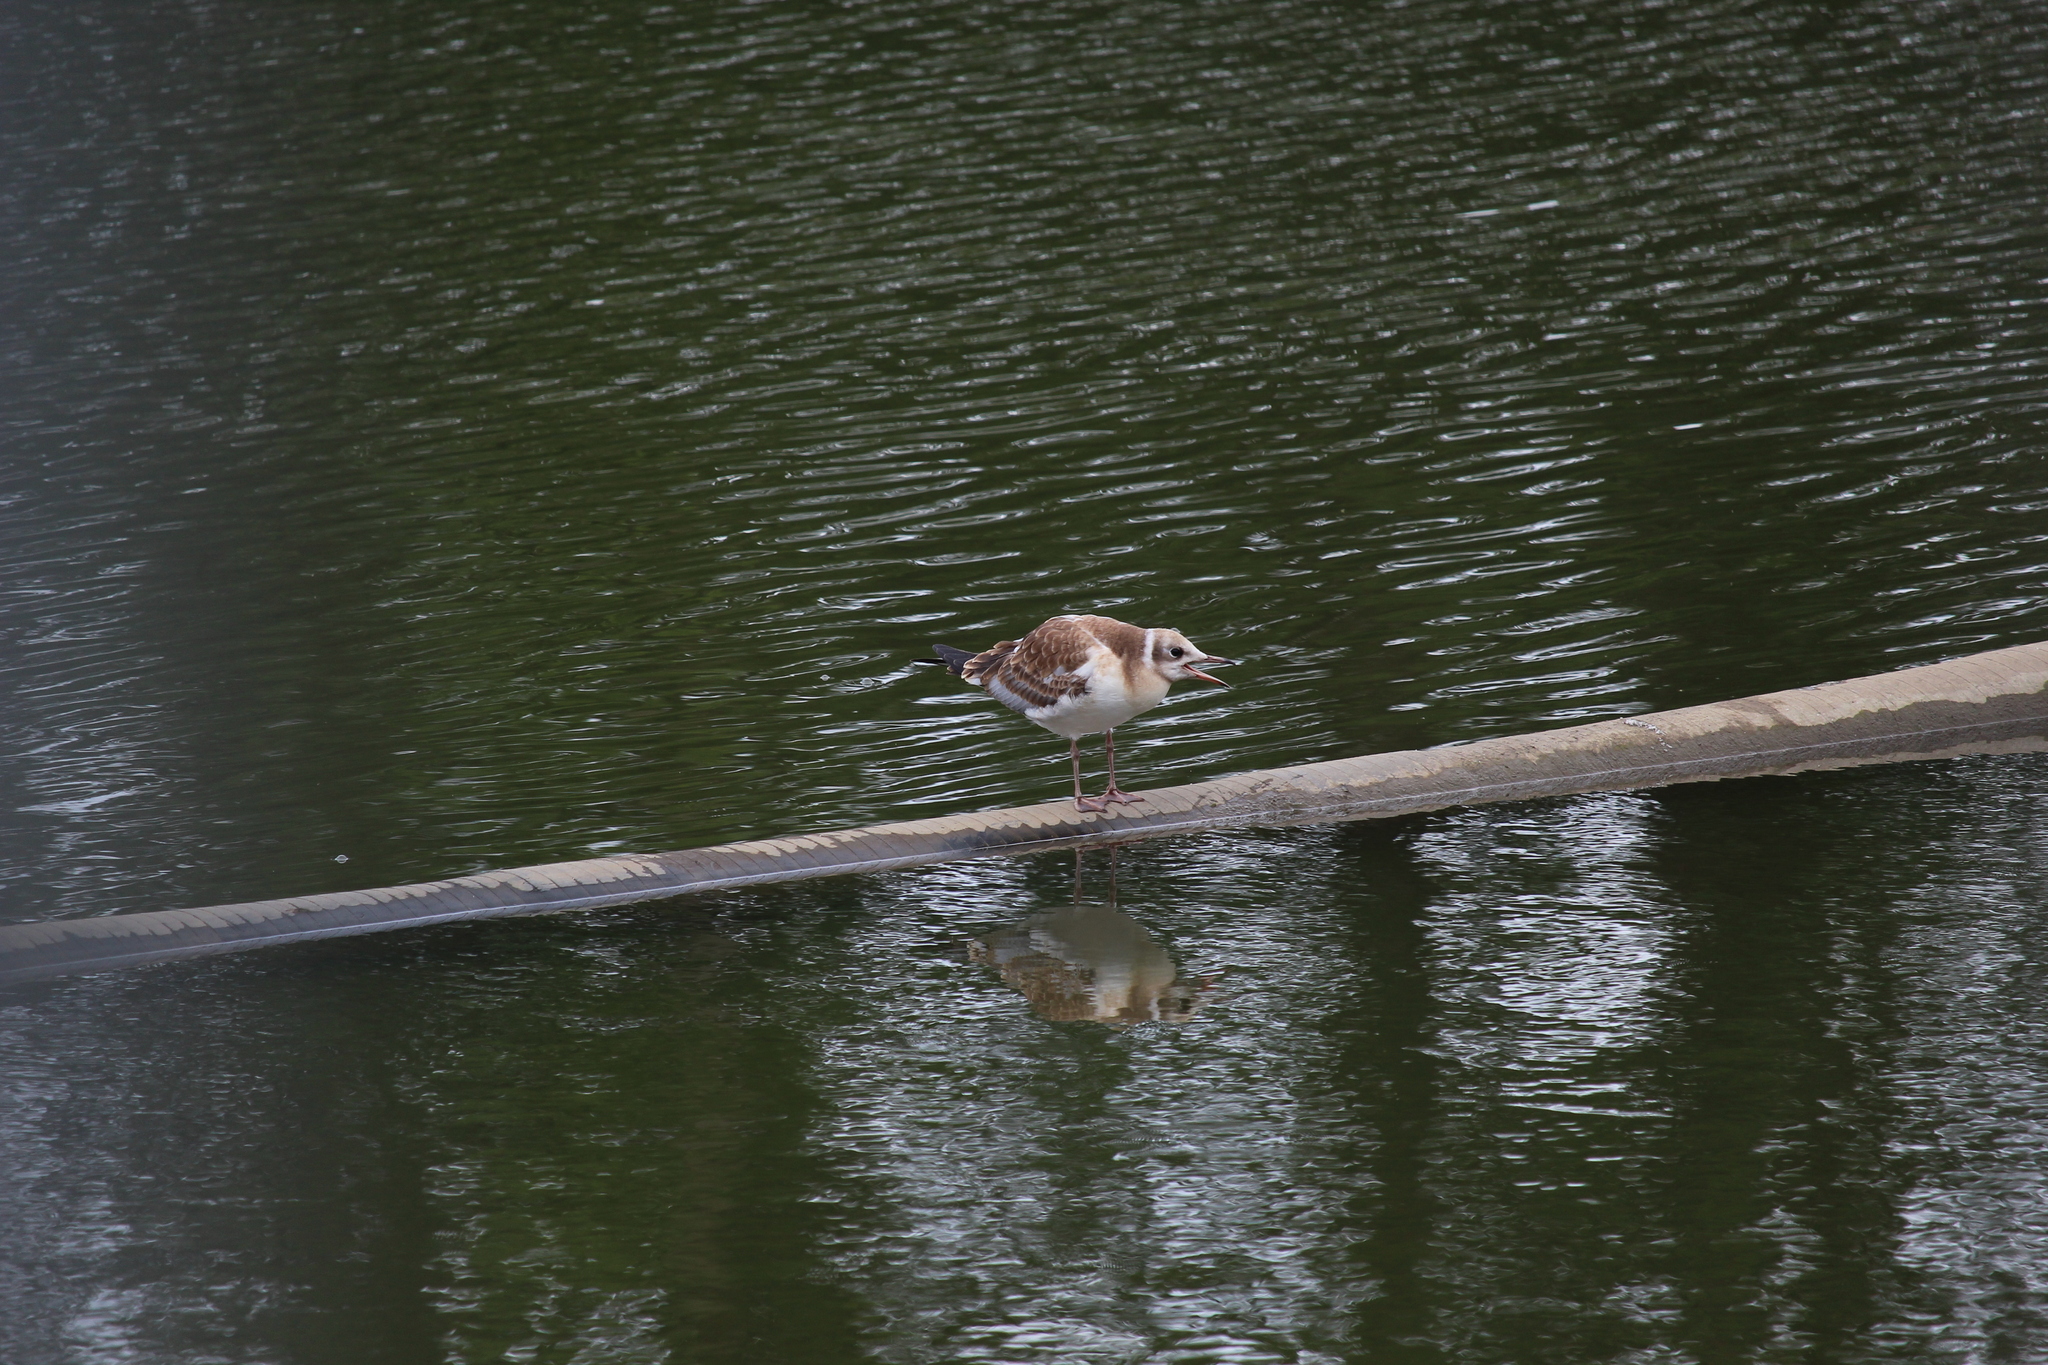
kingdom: Animalia
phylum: Chordata
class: Aves
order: Charadriiformes
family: Laridae
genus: Chroicocephalus
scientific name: Chroicocephalus ridibundus
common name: Black-headed gull
